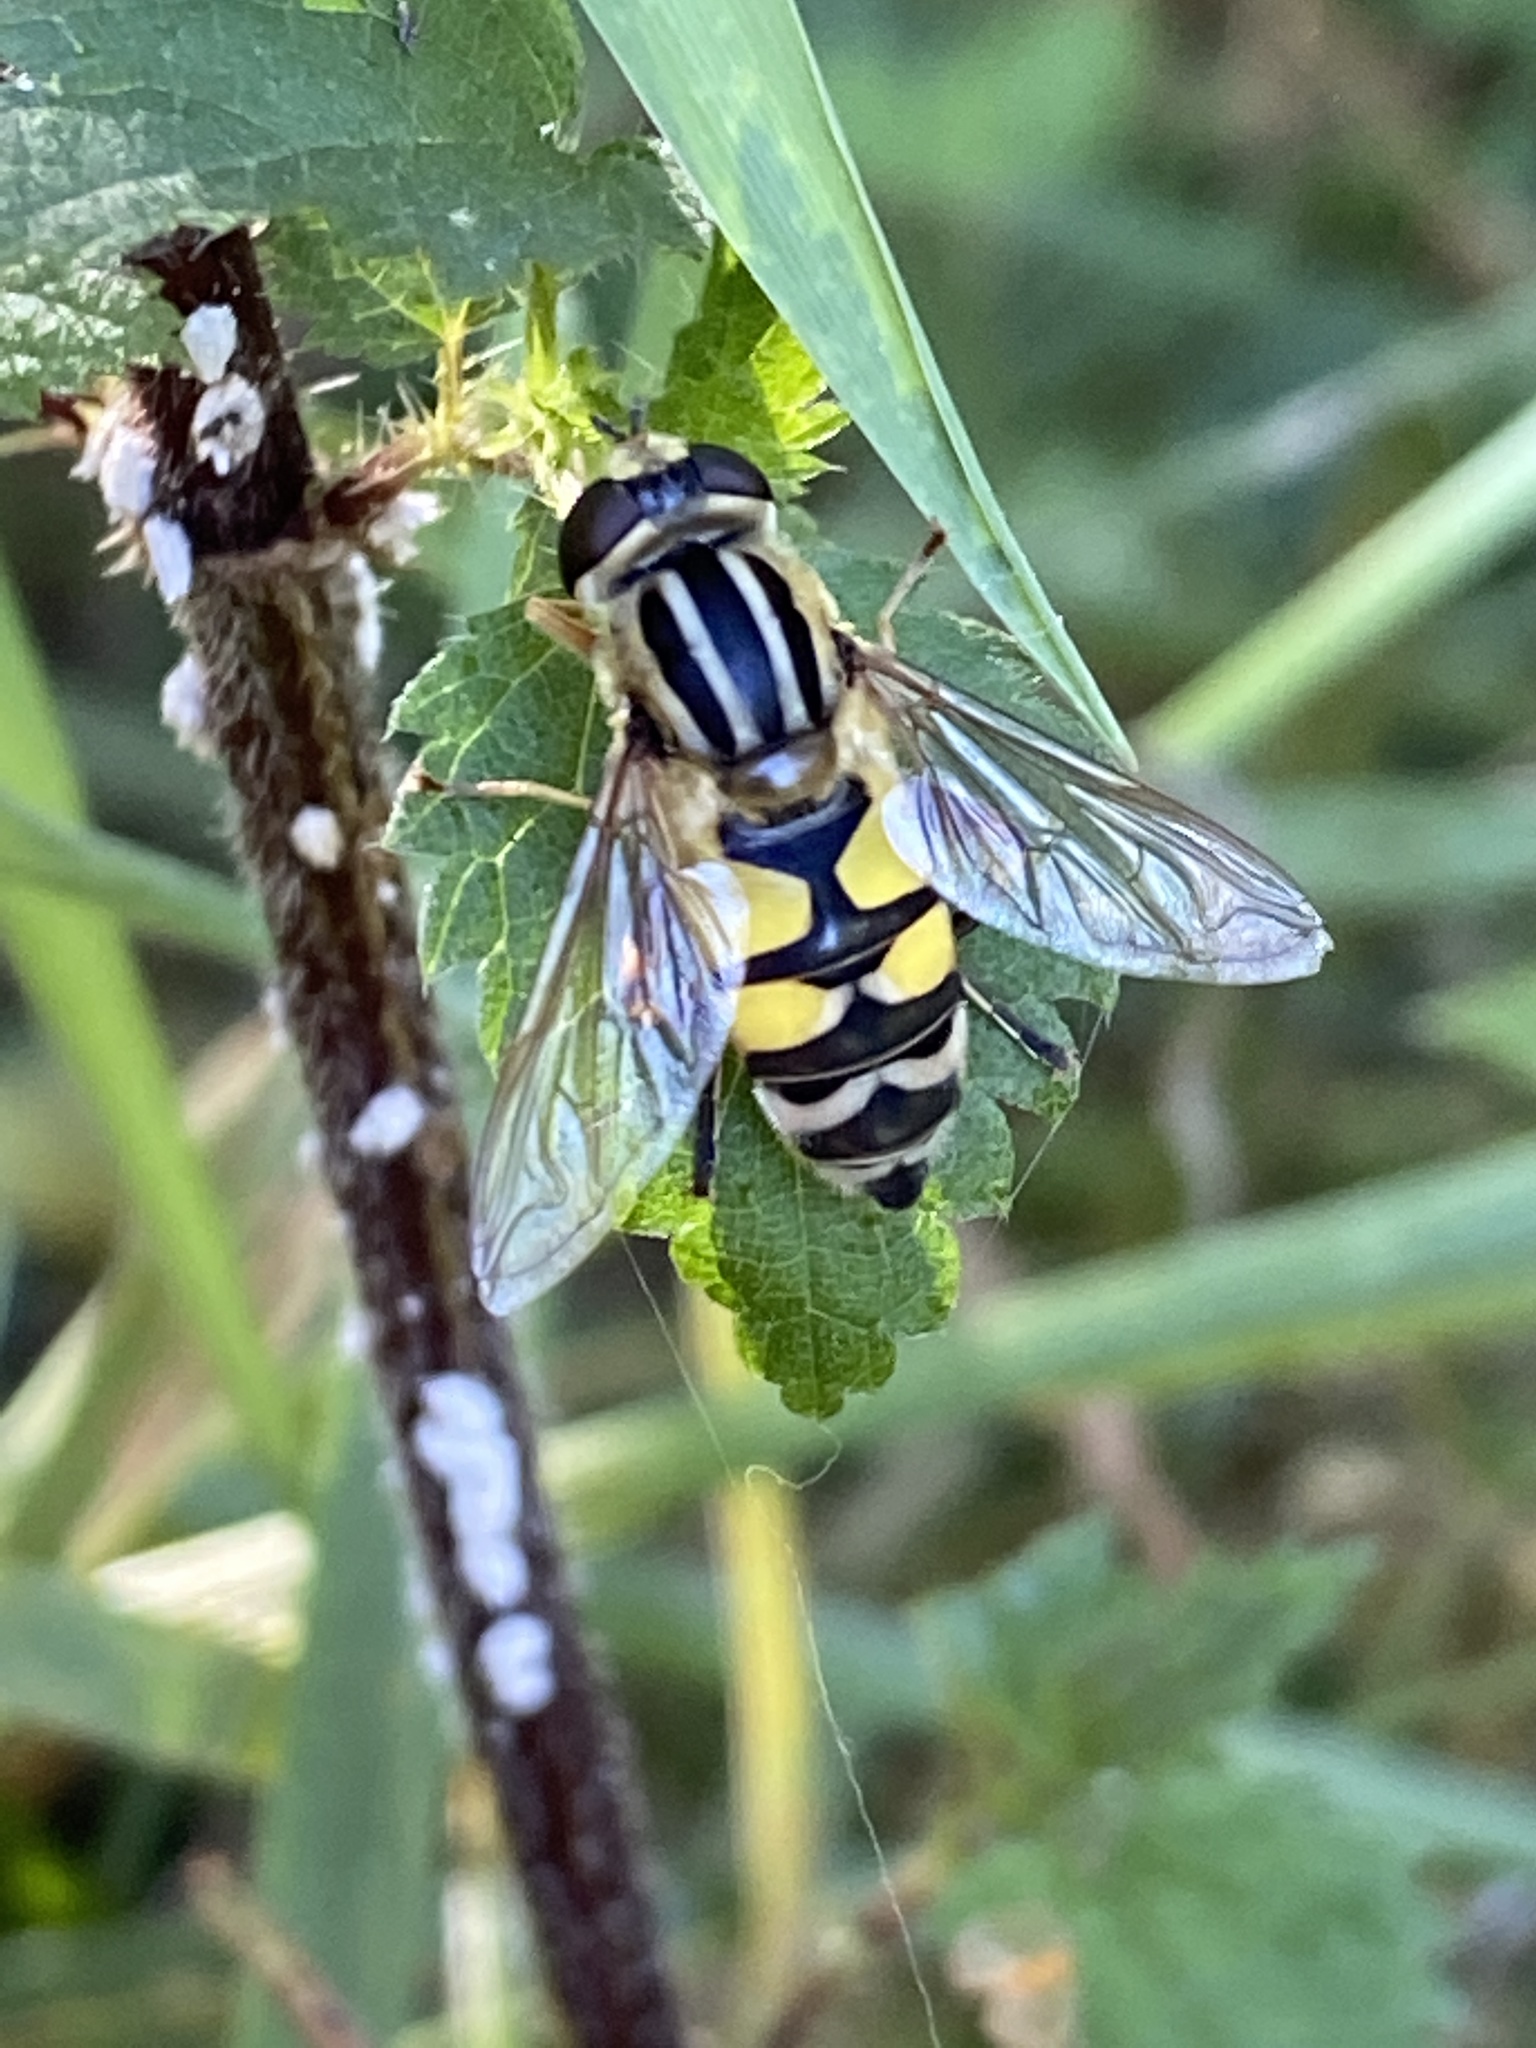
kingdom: Animalia
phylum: Arthropoda
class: Insecta
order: Diptera
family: Syrphidae
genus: Helophilus
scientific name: Helophilus trivittatus
